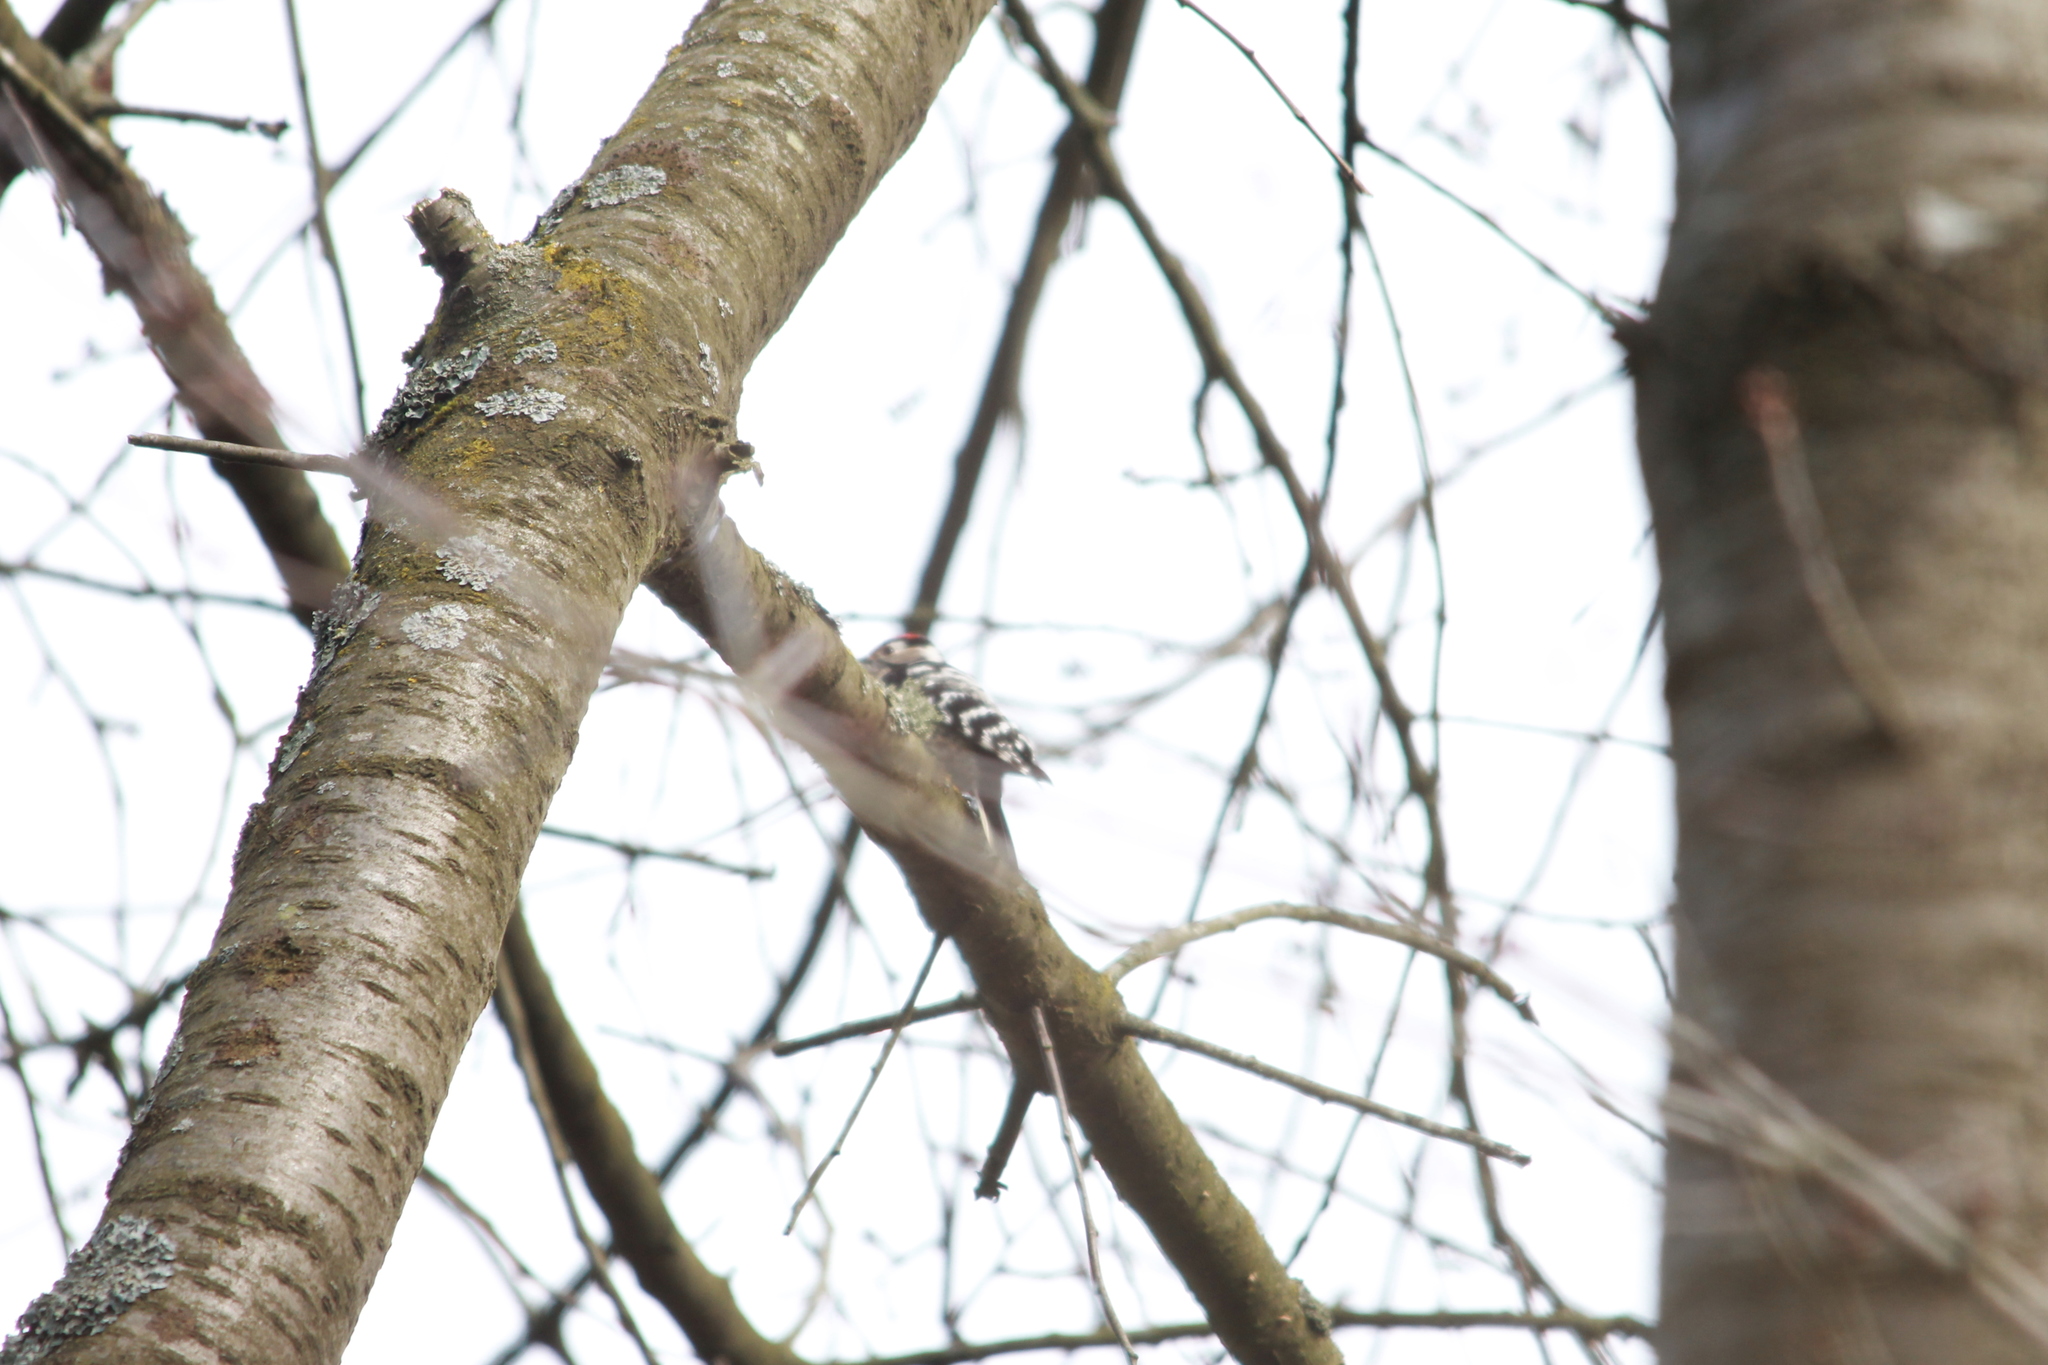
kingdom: Animalia
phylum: Chordata
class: Aves
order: Piciformes
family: Picidae
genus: Dryobates
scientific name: Dryobates minor
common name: Lesser spotted woodpecker
